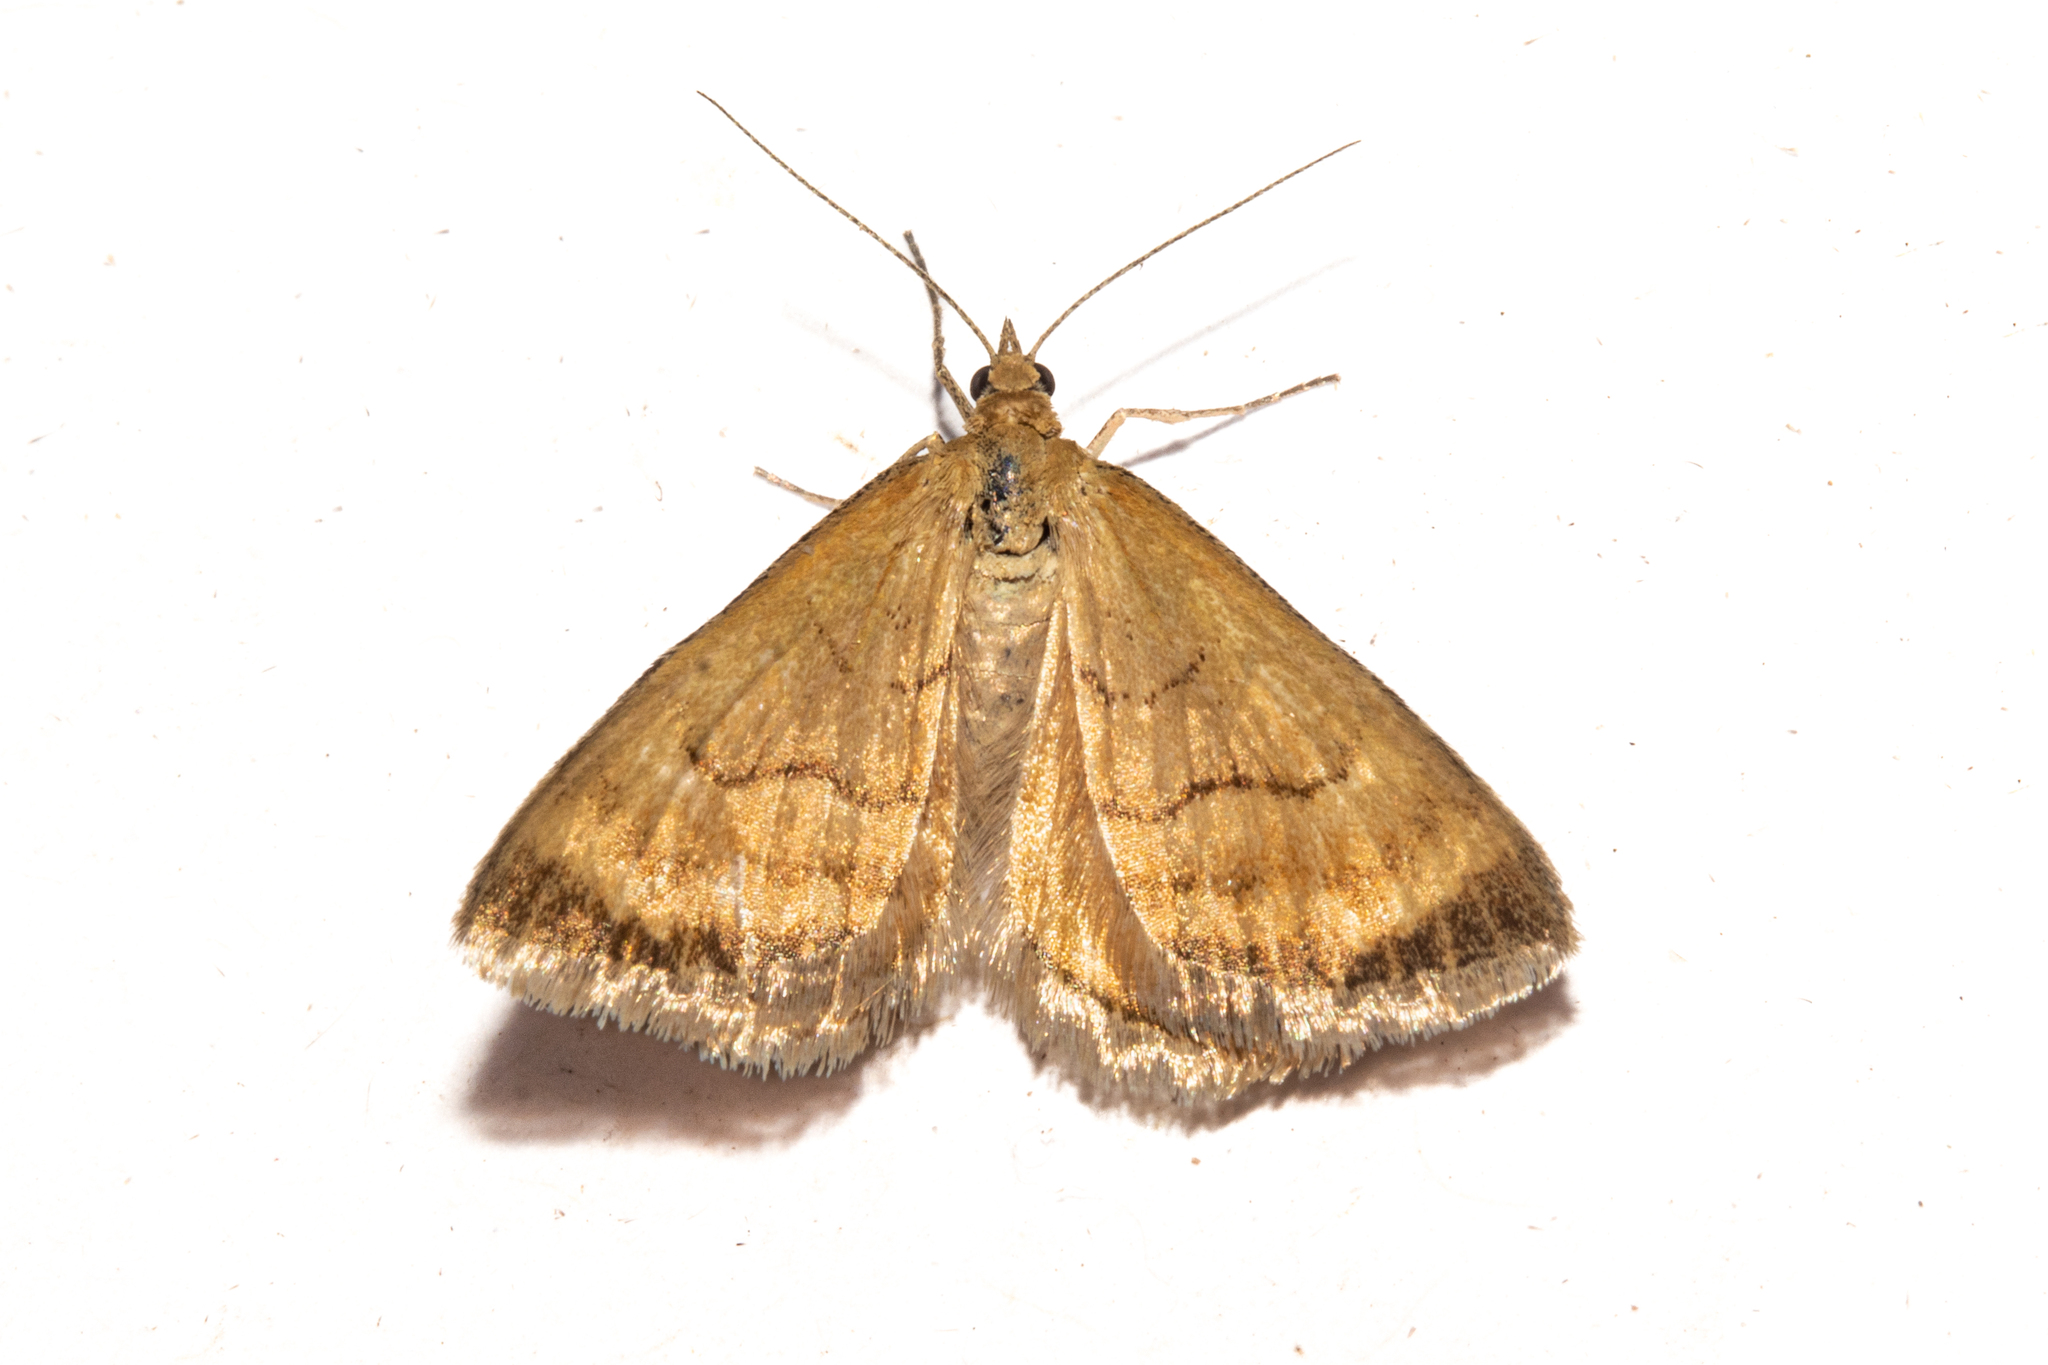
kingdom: Animalia
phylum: Arthropoda
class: Insecta
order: Lepidoptera
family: Geometridae
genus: Asaphodes
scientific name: Asaphodes abrogata
